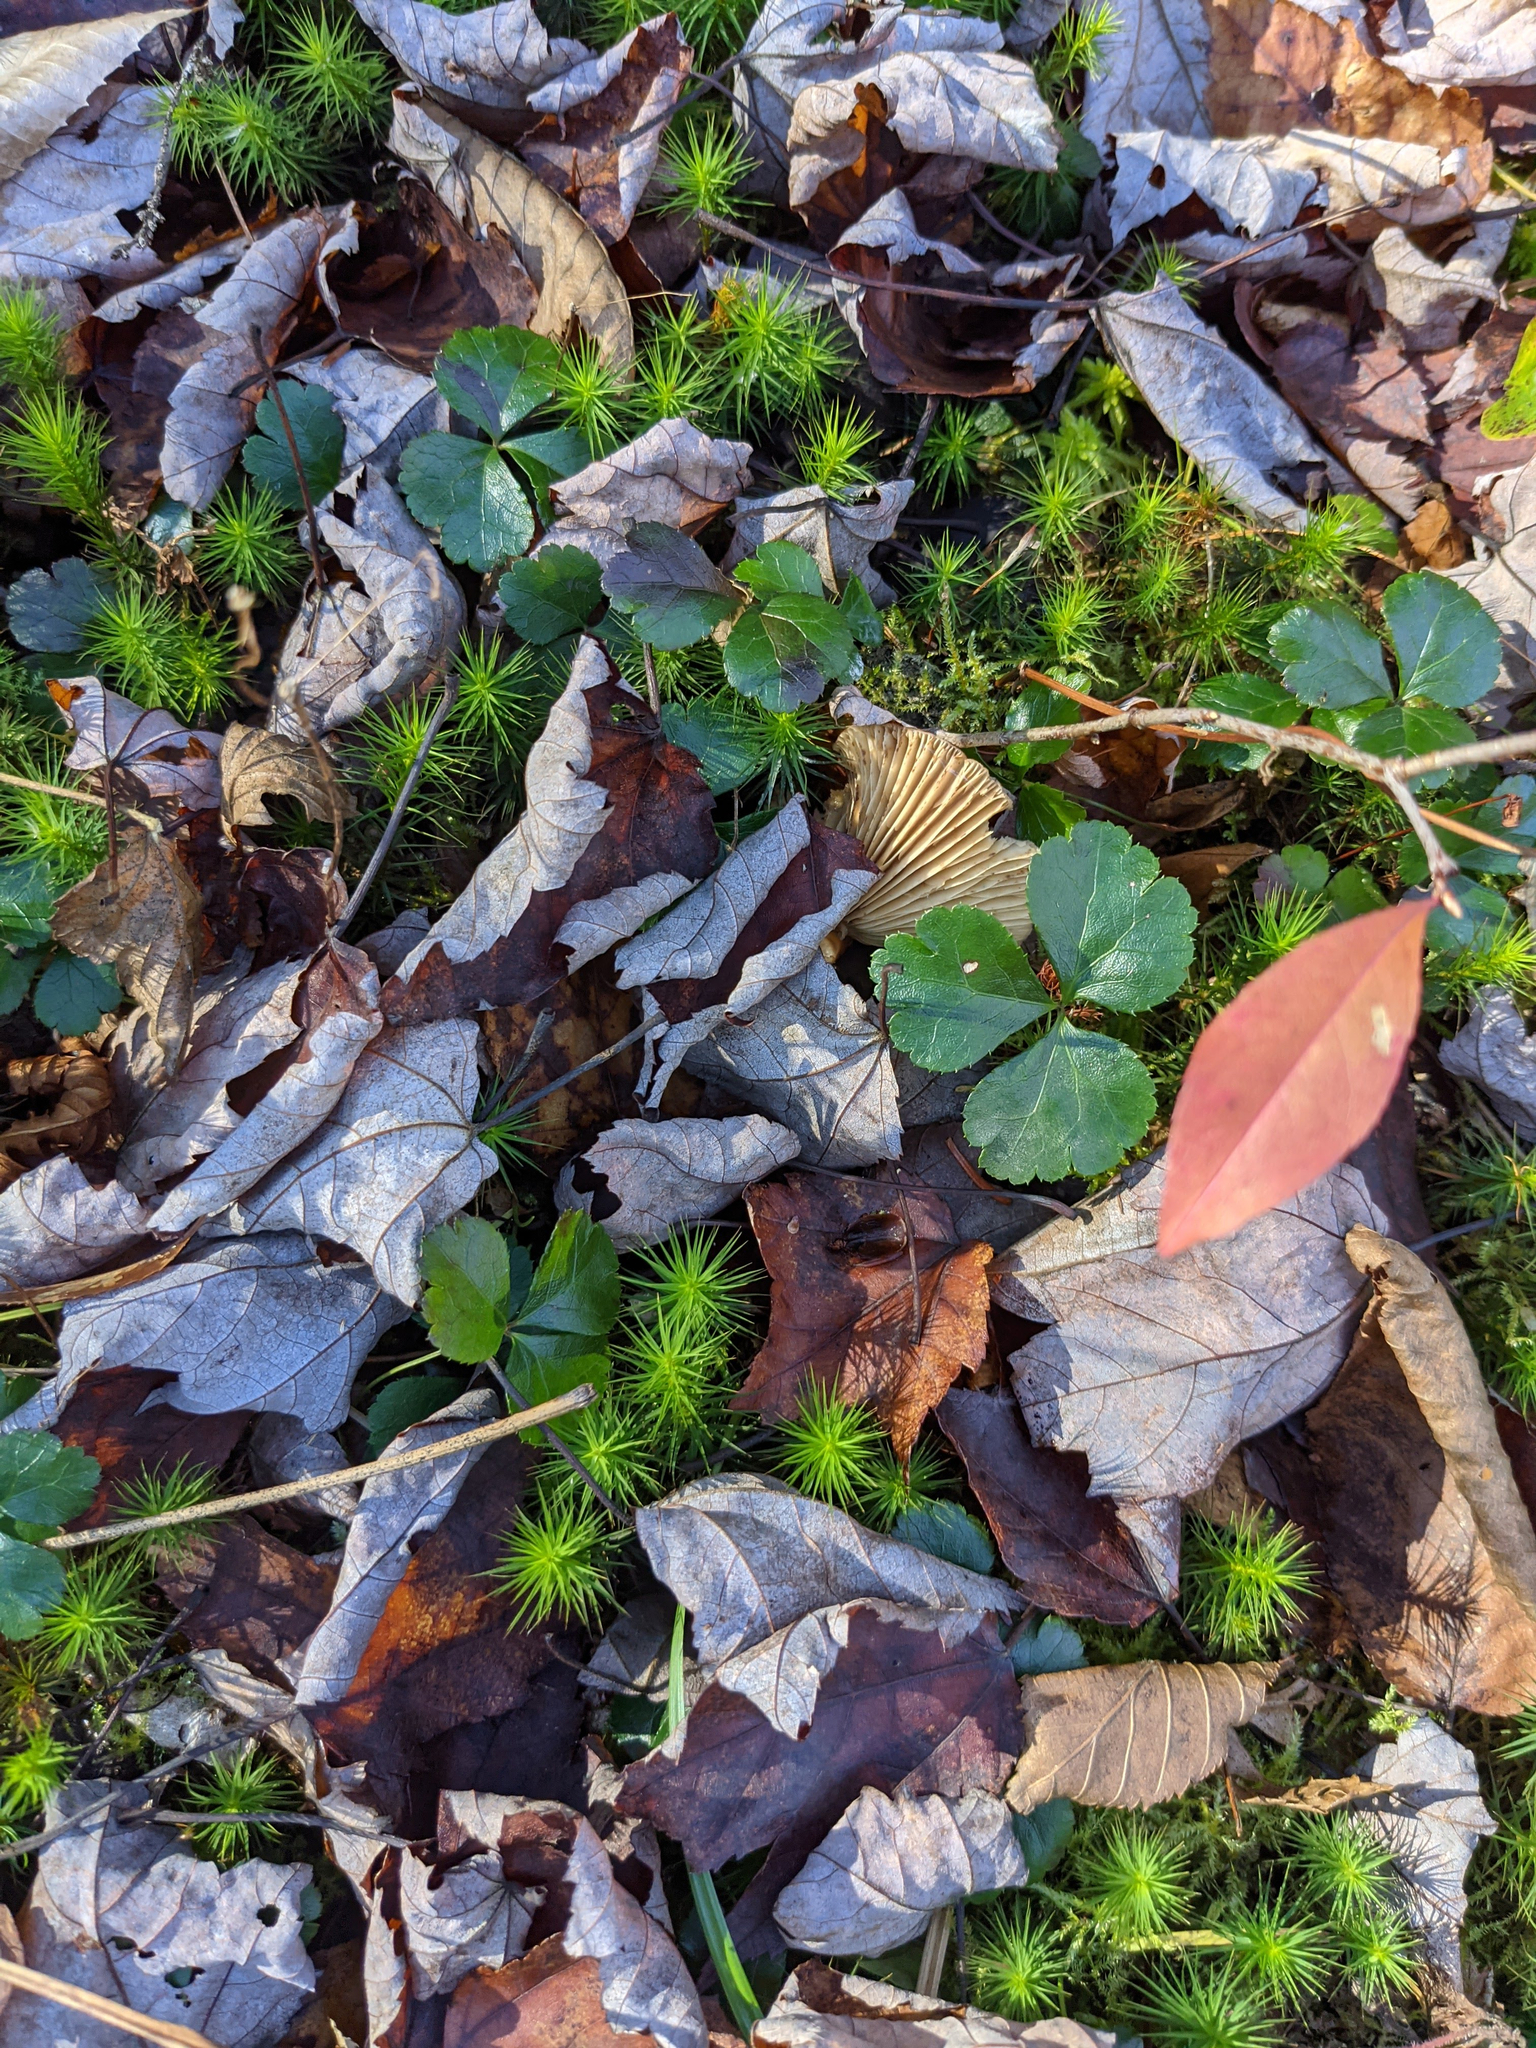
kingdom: Plantae
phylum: Tracheophyta
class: Magnoliopsida
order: Ranunculales
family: Ranunculaceae
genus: Coptis
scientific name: Coptis trifolia
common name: Canker-root
